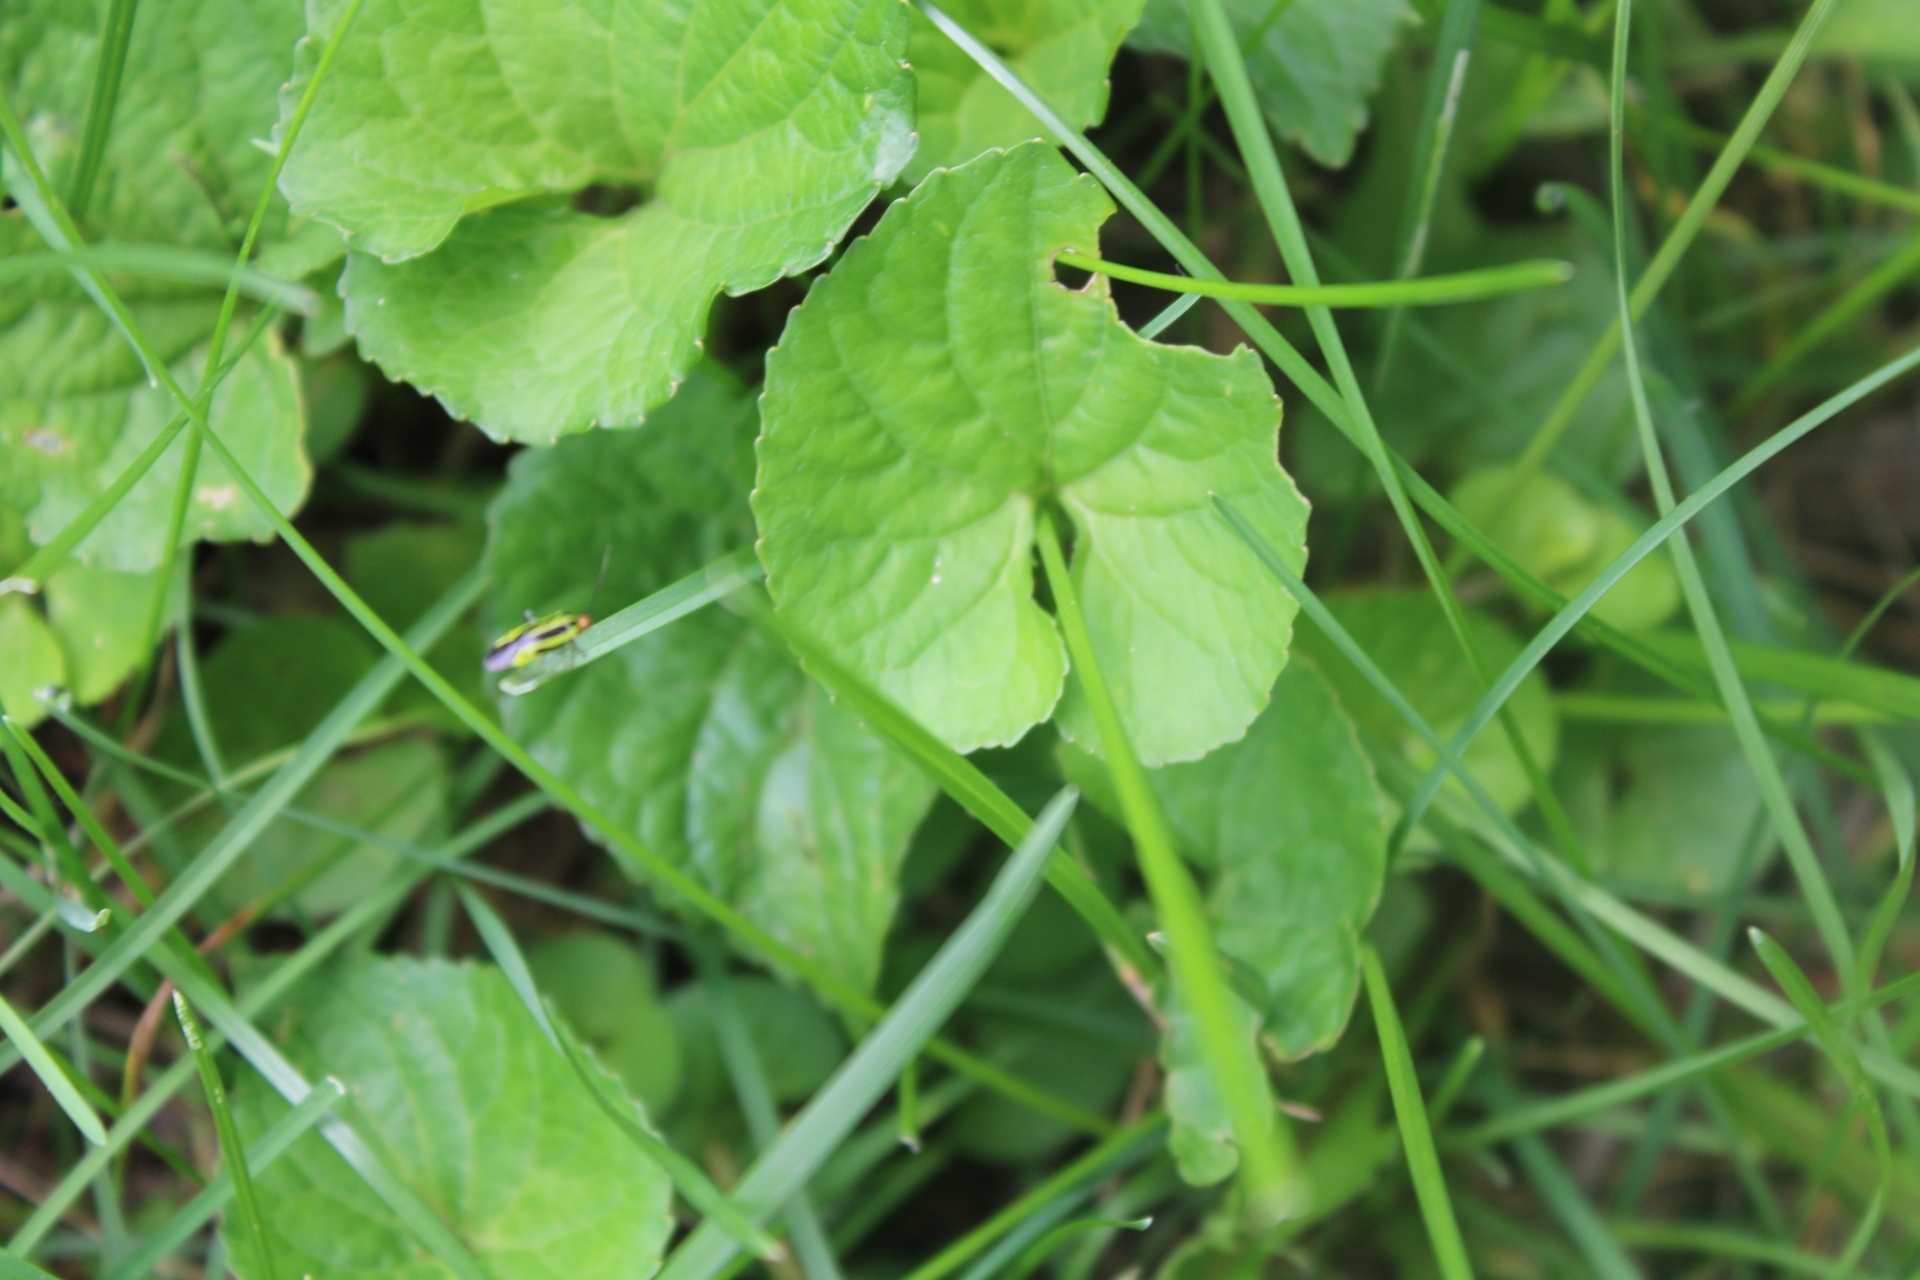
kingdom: Animalia
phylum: Arthropoda
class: Insecta
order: Hemiptera
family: Miridae
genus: Poecilocapsus
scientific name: Poecilocapsus lineatus
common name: Four-lined plant bug
